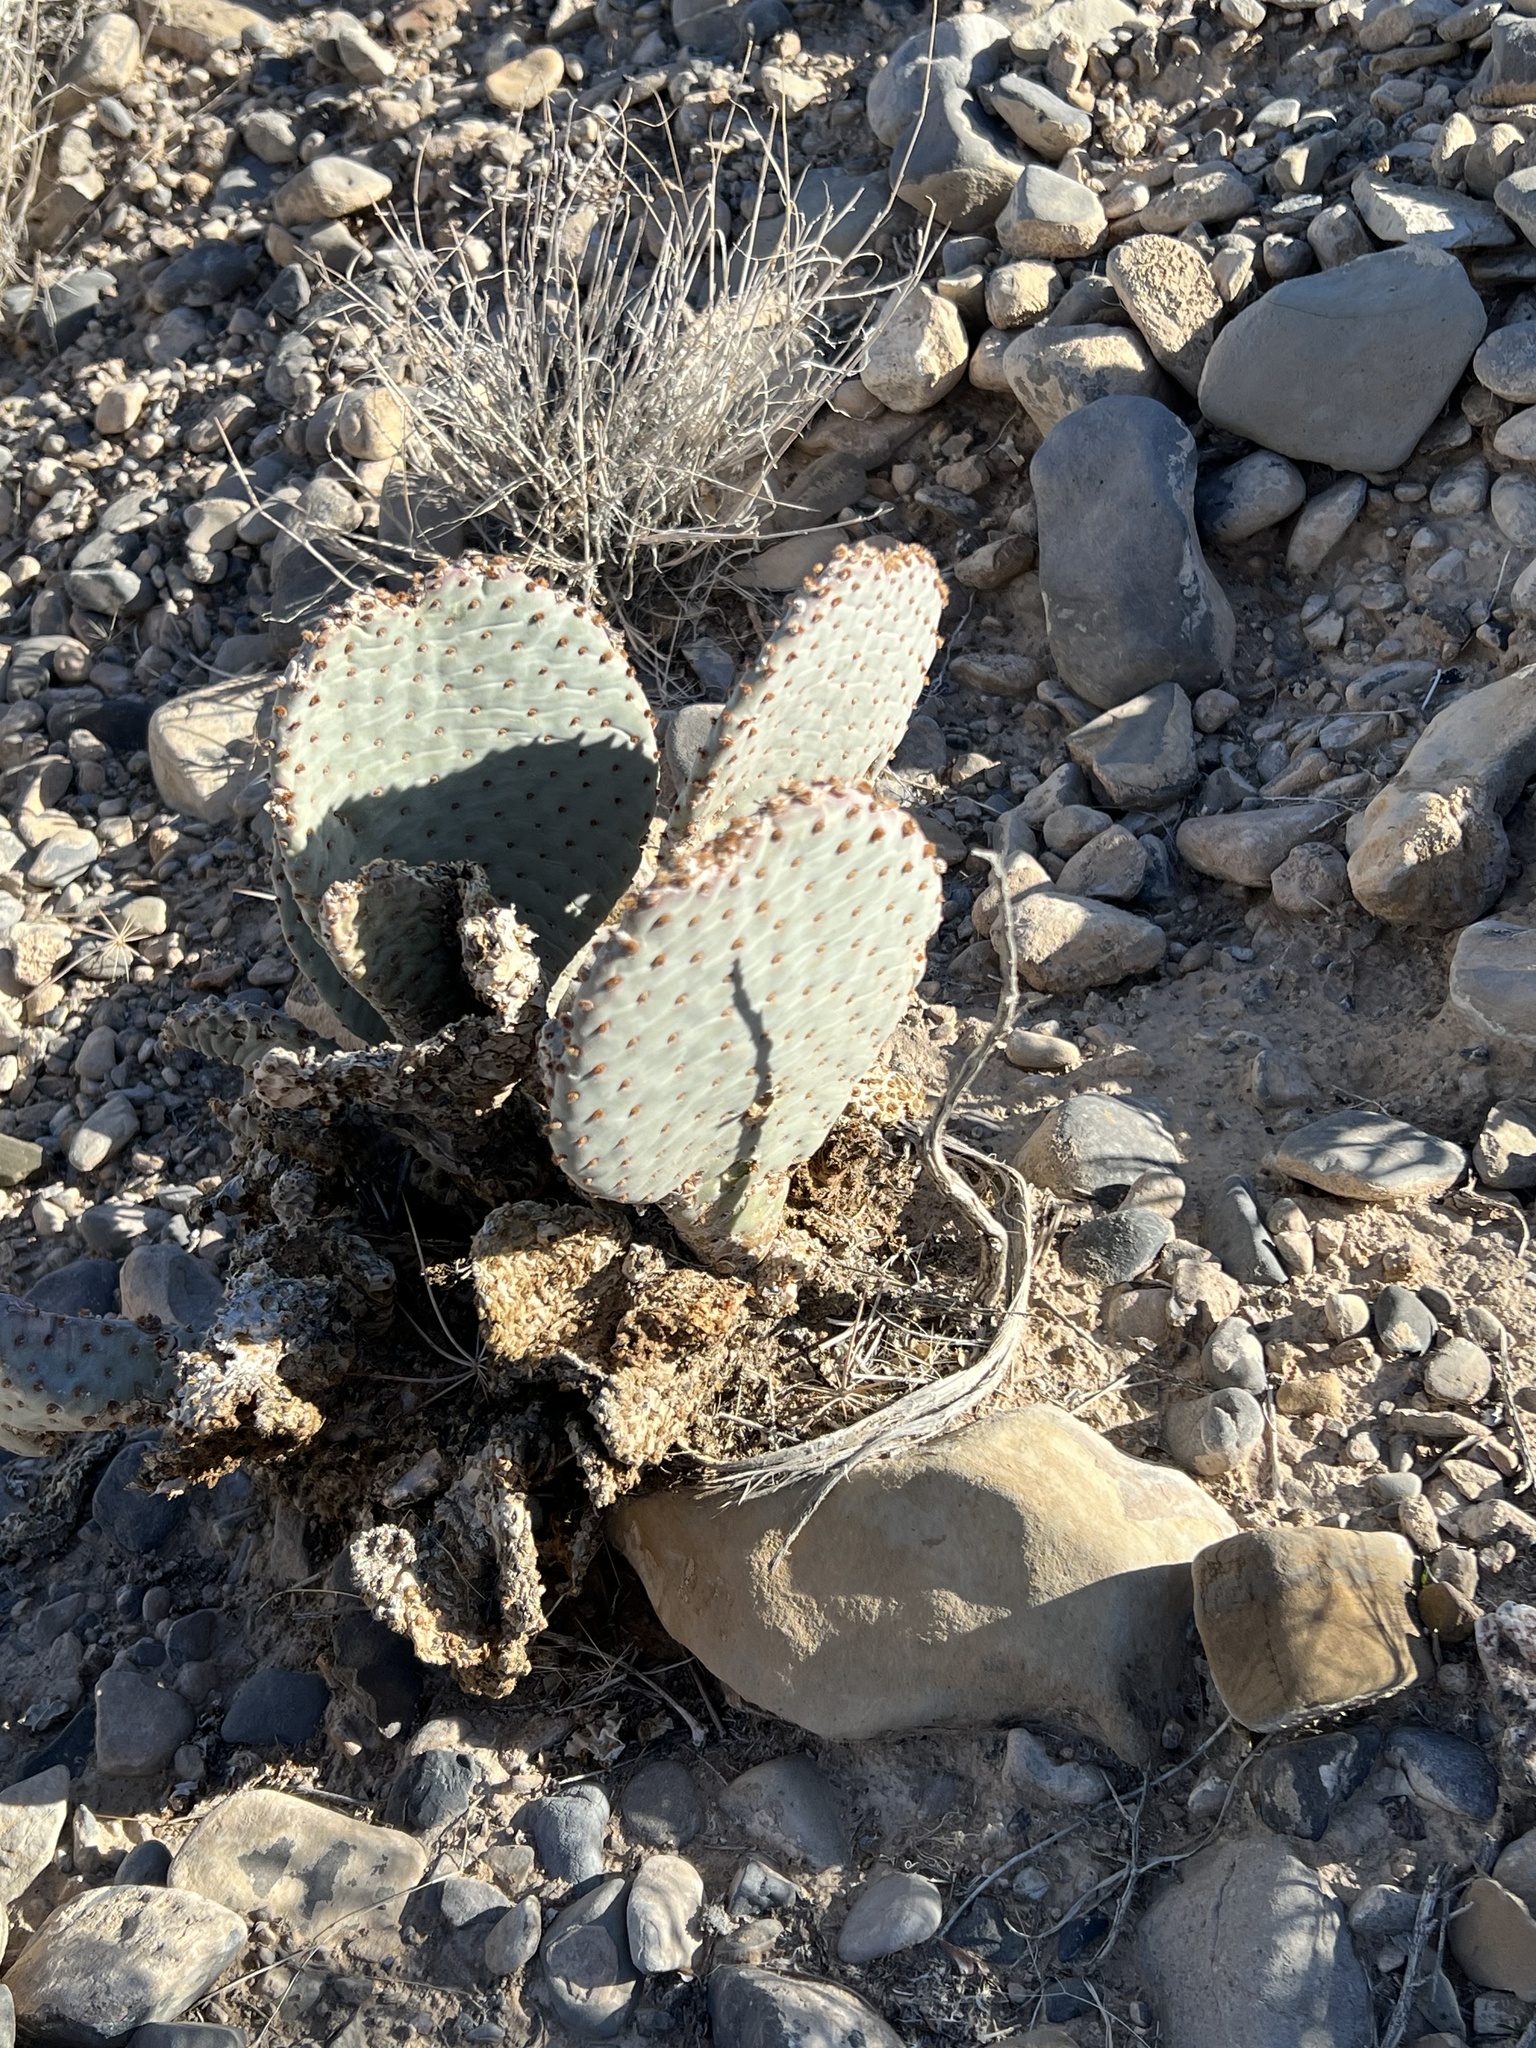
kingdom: Plantae
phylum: Tracheophyta
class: Magnoliopsida
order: Caryophyllales
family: Cactaceae
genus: Opuntia
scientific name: Opuntia basilaris
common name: Beavertail prickly-pear
